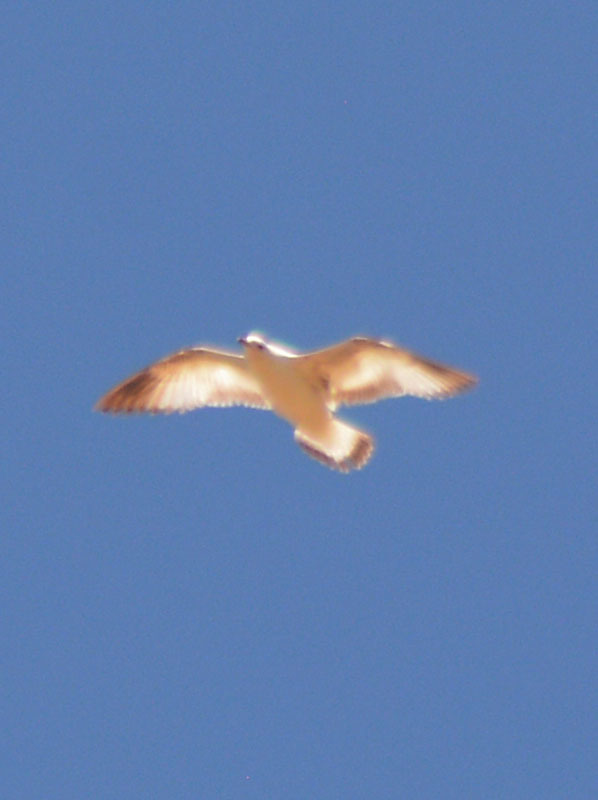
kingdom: Animalia
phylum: Chordata
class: Aves
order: Charadriiformes
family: Laridae
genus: Larus
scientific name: Larus delawarensis
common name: Ring-billed gull
